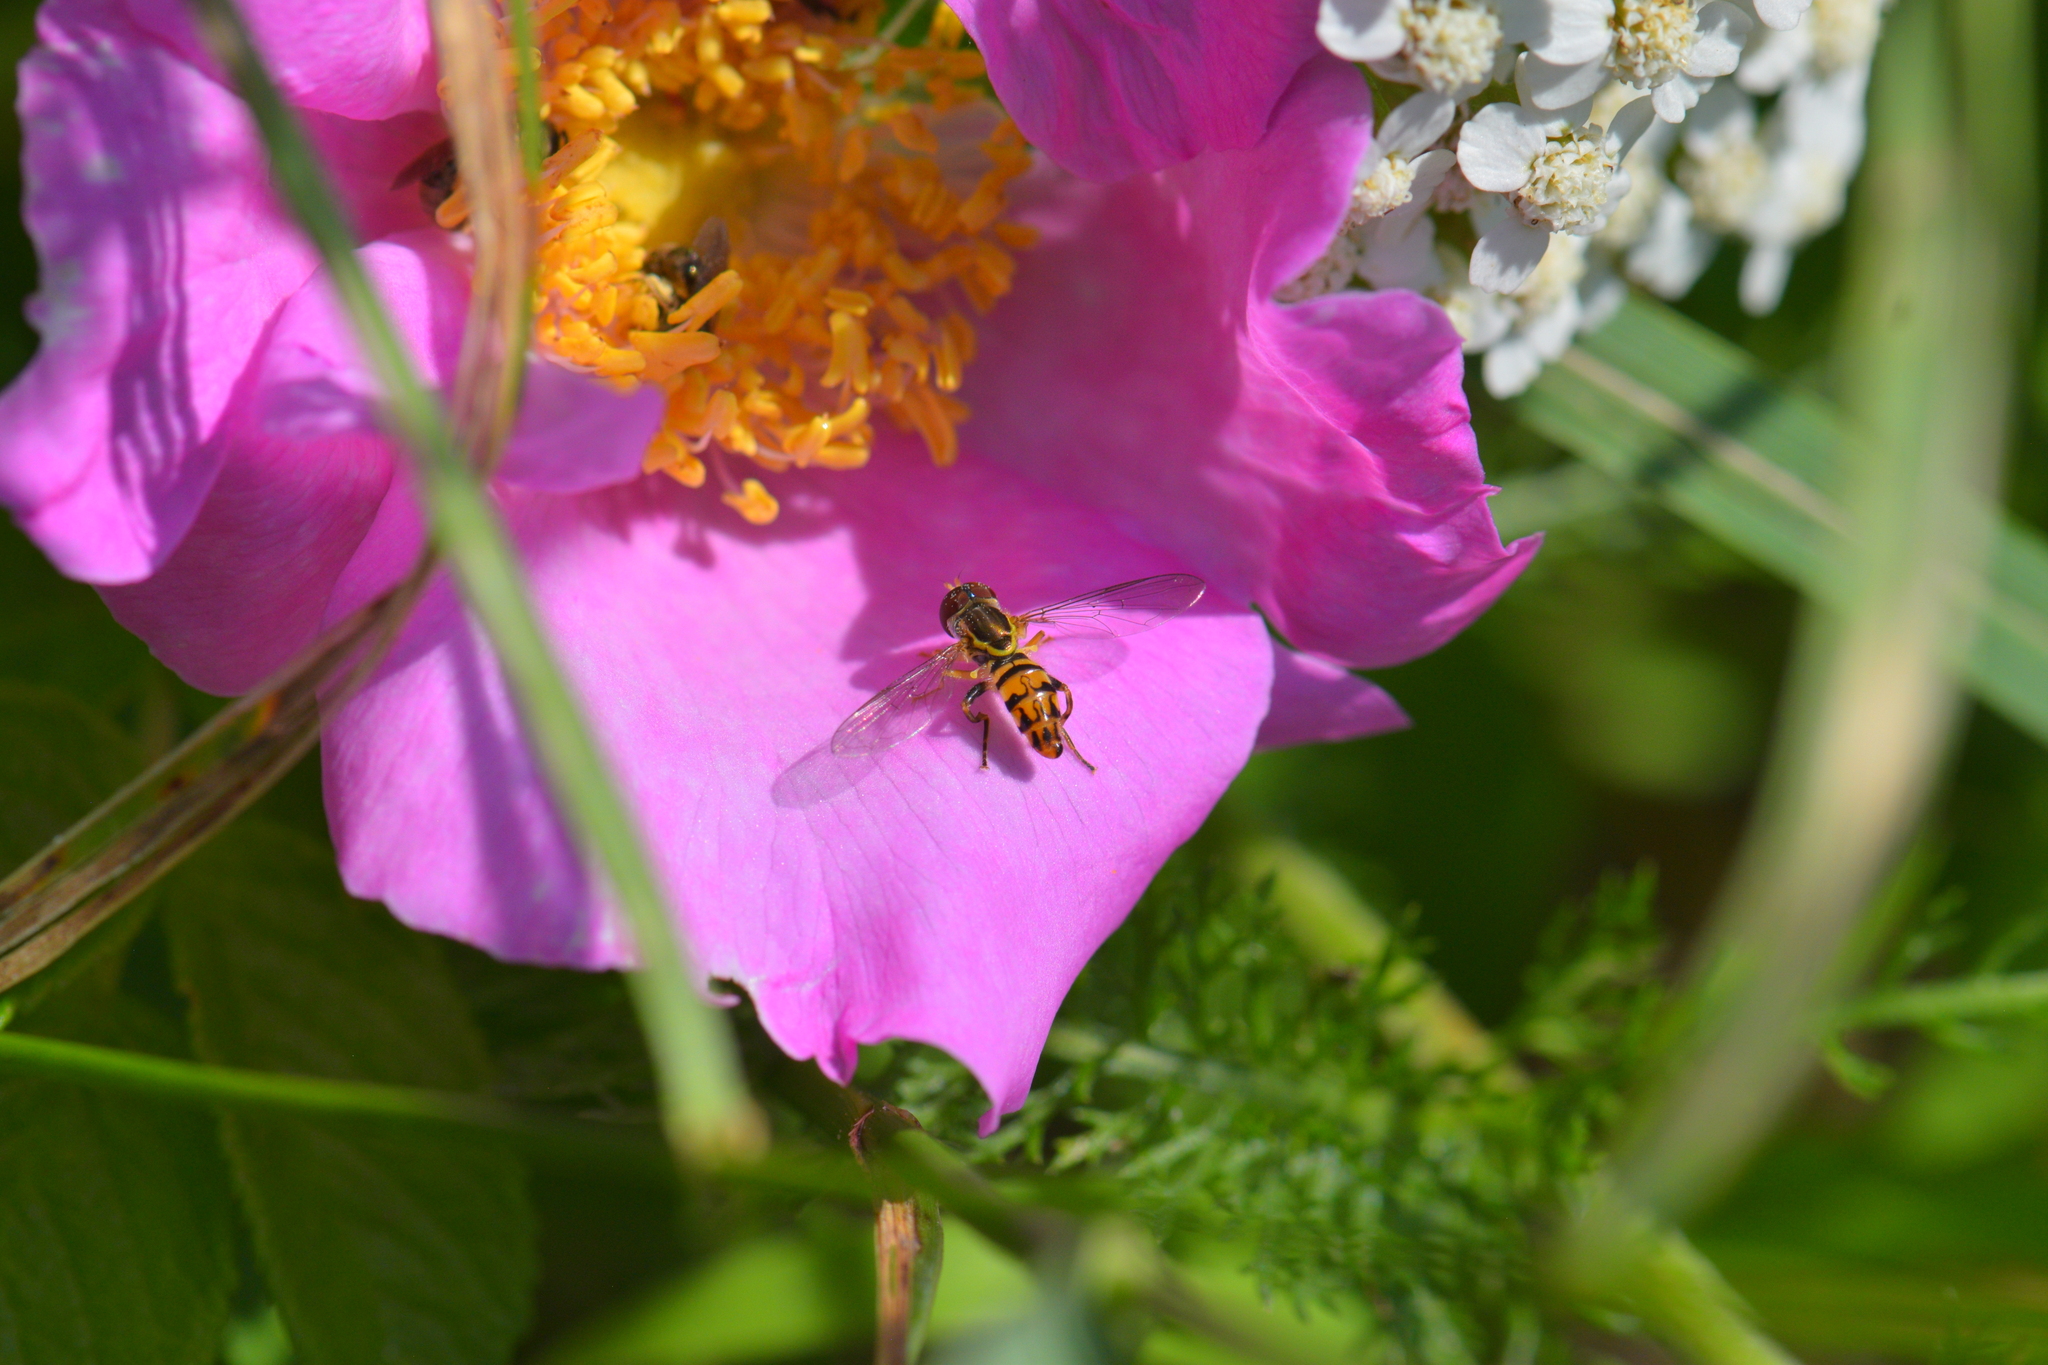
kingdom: Animalia
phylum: Arthropoda
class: Insecta
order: Diptera
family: Syrphidae
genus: Toxomerus
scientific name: Toxomerus geminatus
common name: Eastern calligrapher
